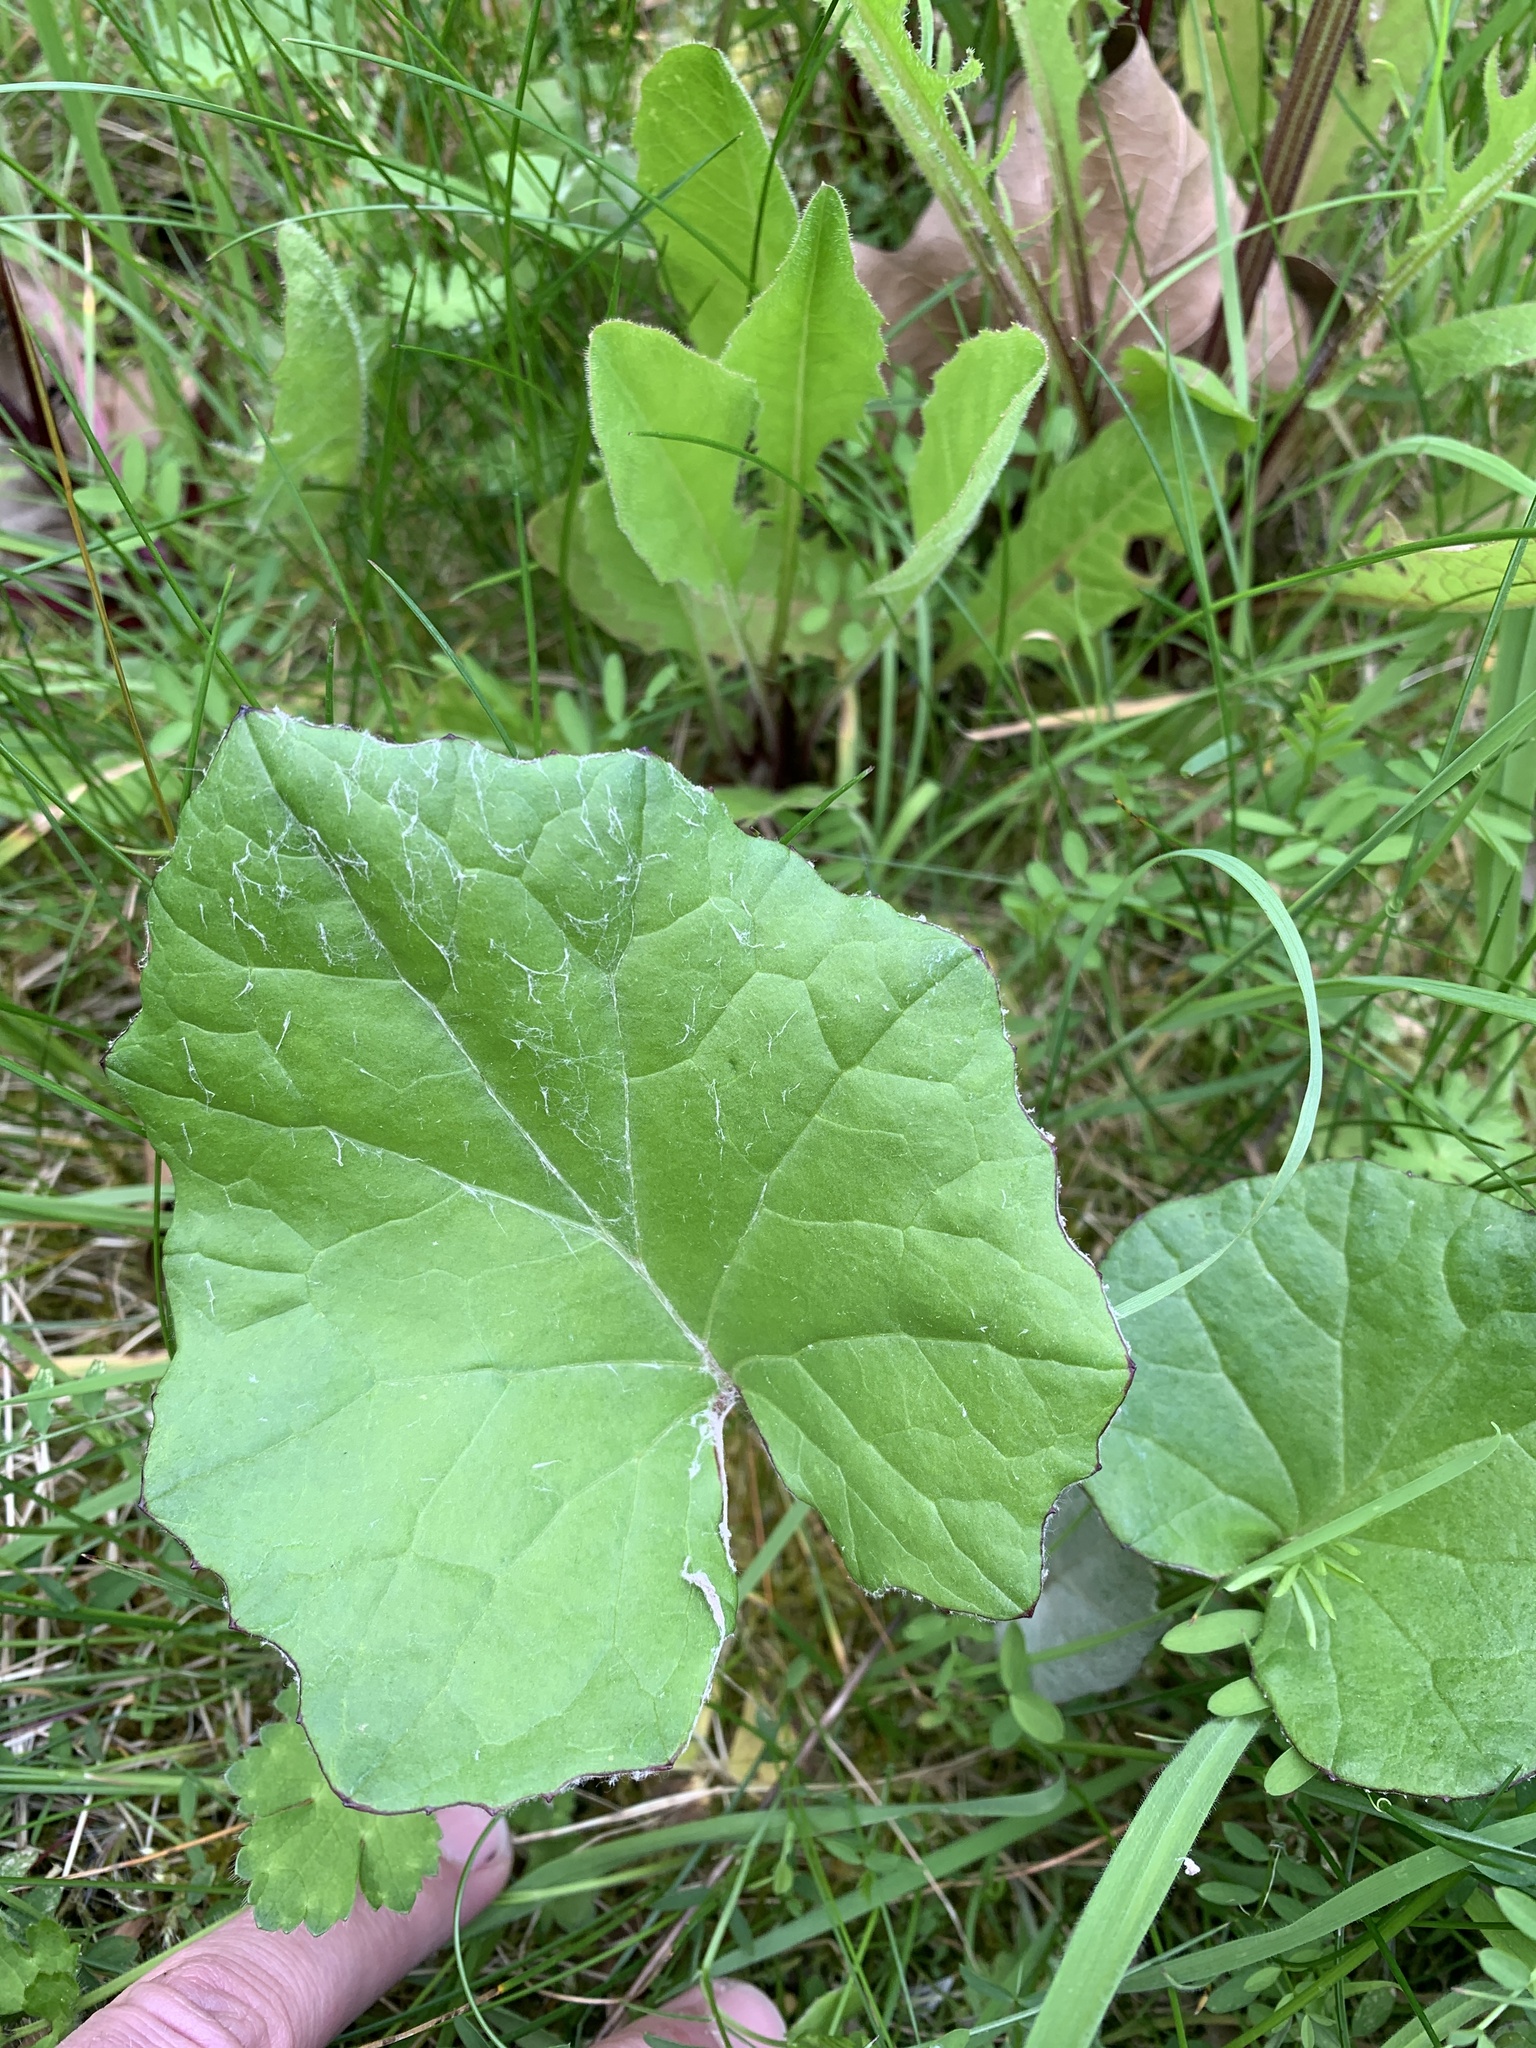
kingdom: Plantae
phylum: Tracheophyta
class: Magnoliopsida
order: Asterales
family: Asteraceae
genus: Tussilago
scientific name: Tussilago farfara
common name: Coltsfoot
